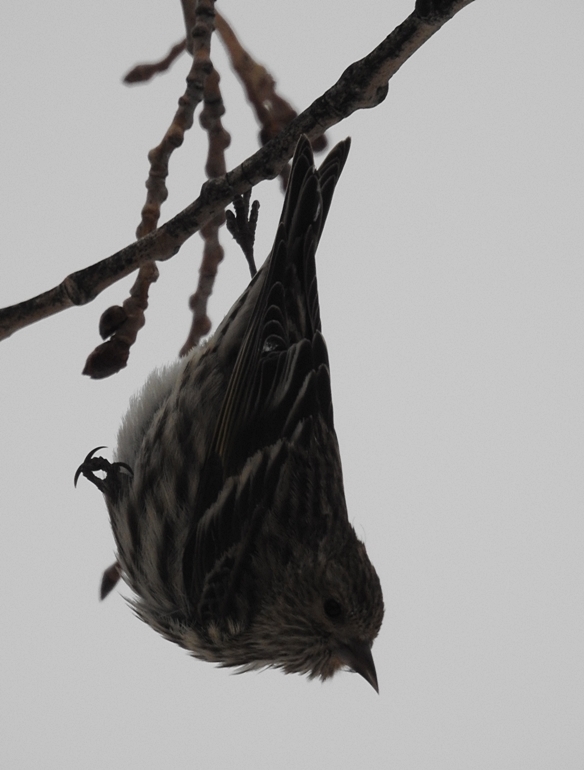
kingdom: Animalia
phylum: Chordata
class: Aves
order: Passeriformes
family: Fringillidae
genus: Spinus
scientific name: Spinus pinus
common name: Pine siskin
